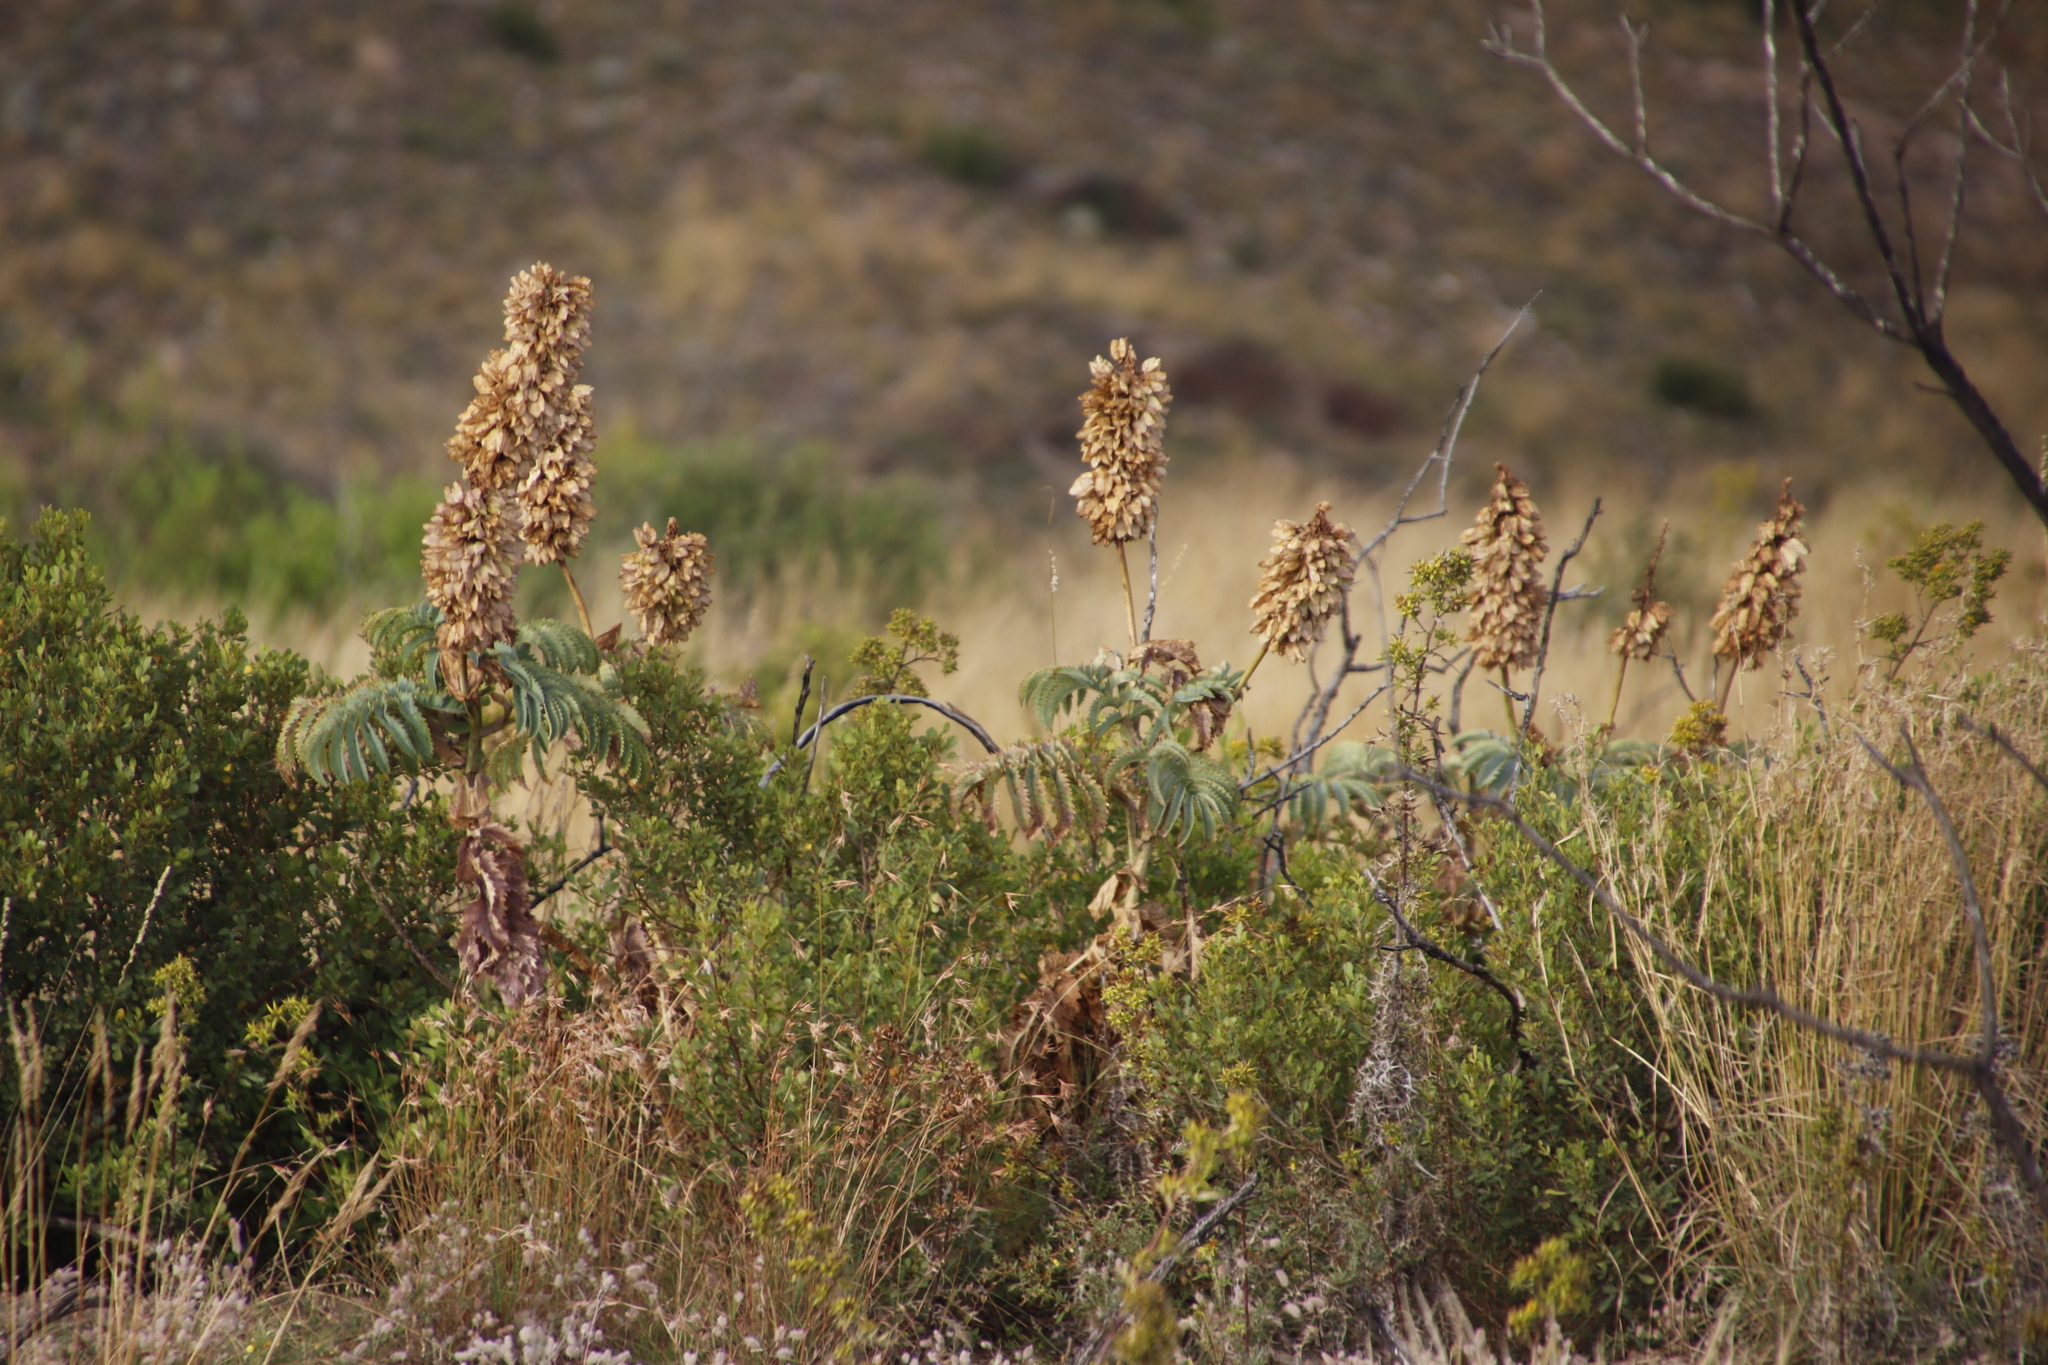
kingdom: Plantae
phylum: Tracheophyta
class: Magnoliopsida
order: Geraniales
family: Melianthaceae
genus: Melianthus
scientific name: Melianthus major
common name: Honey-flower
